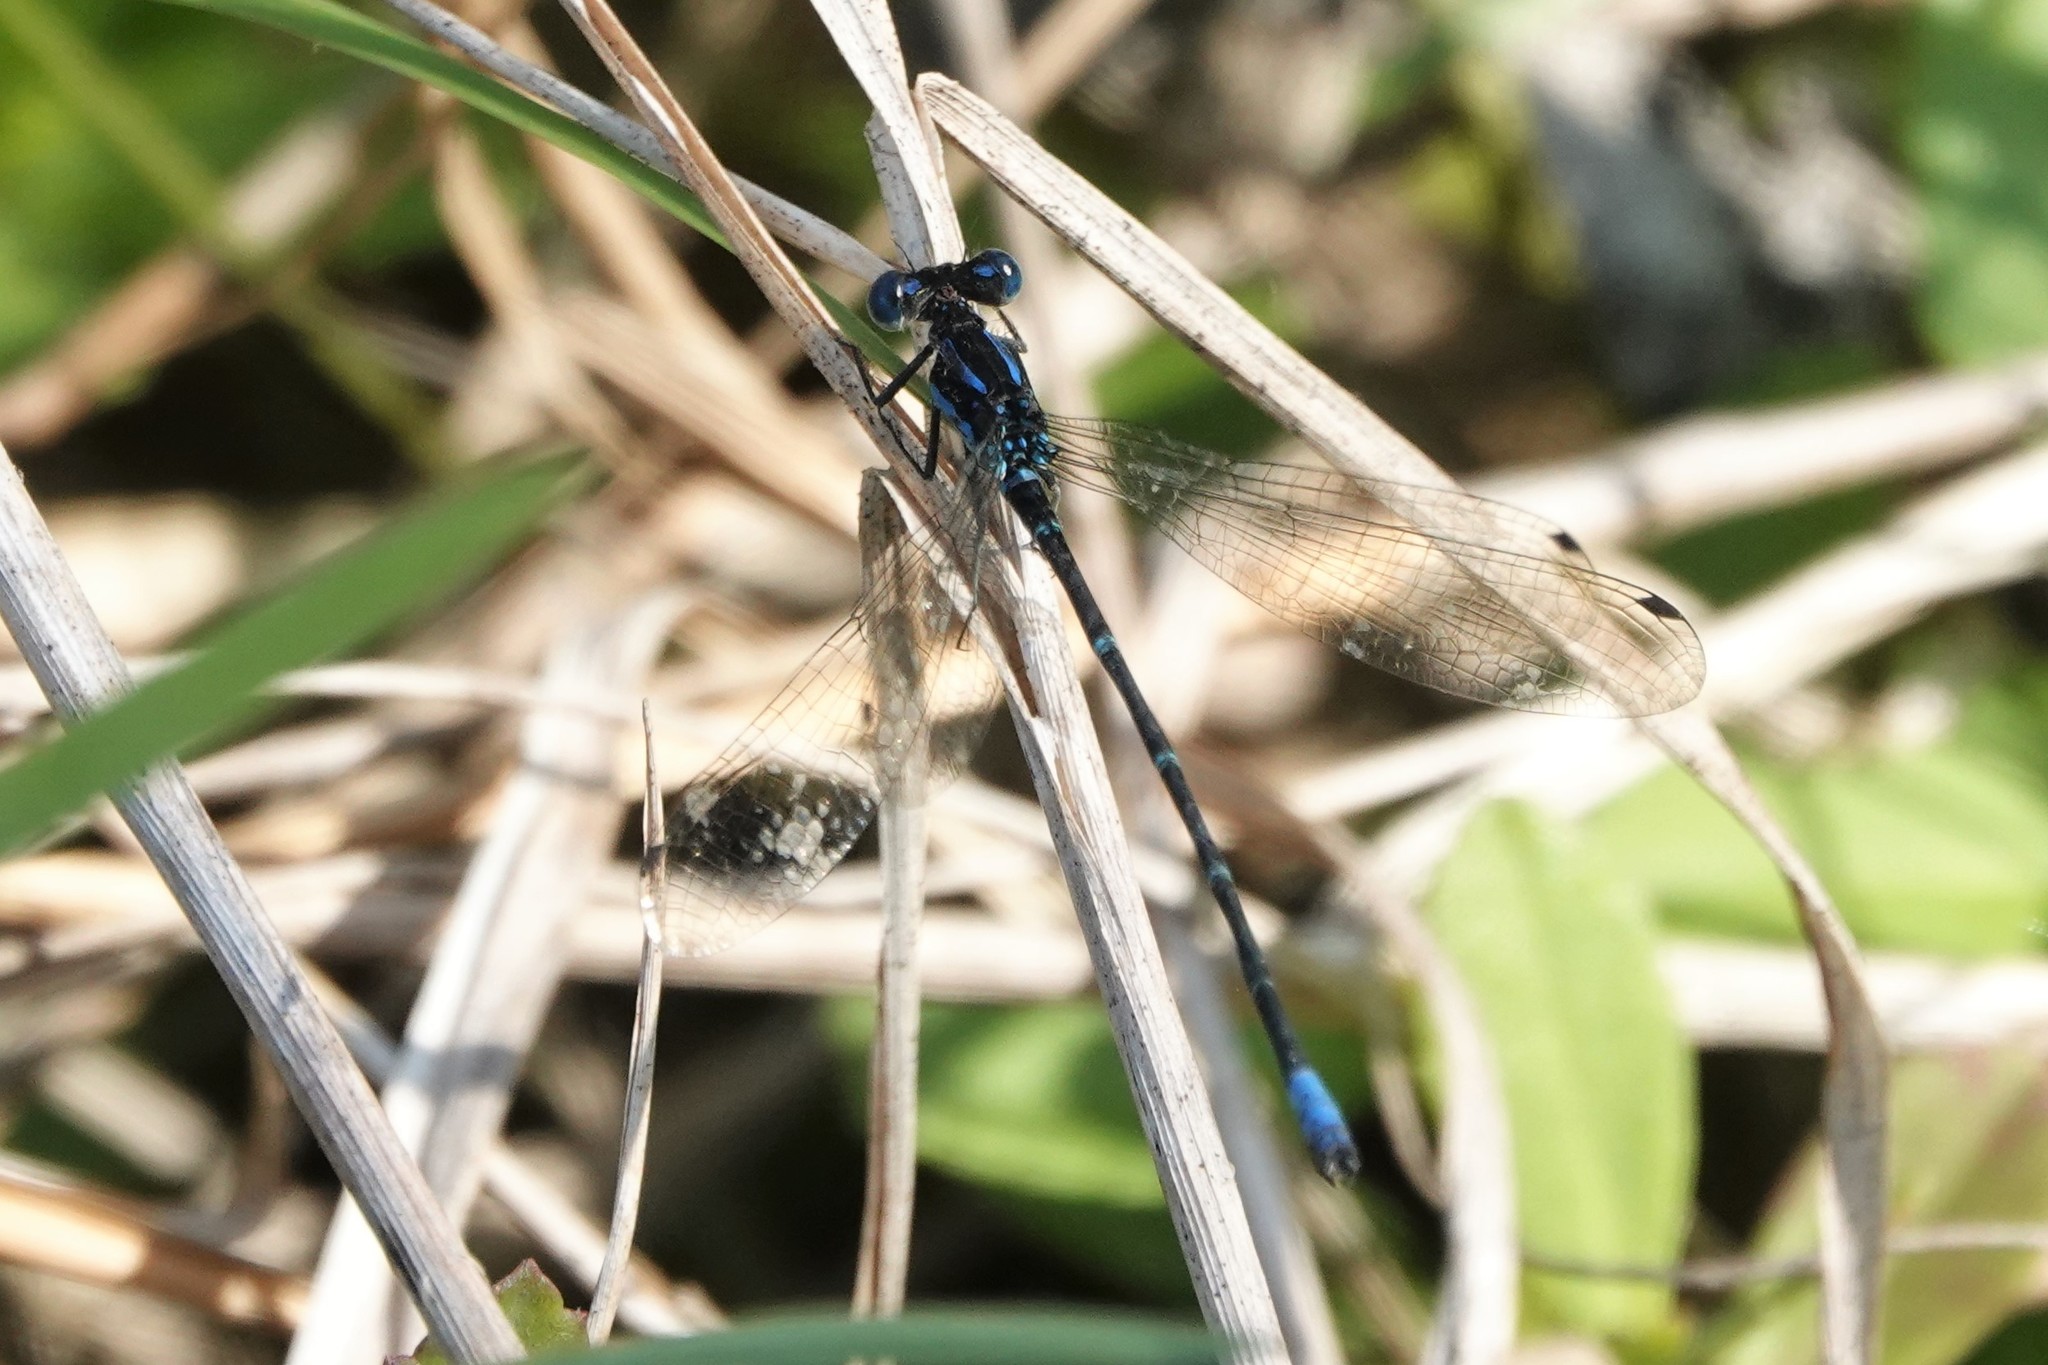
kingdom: Animalia
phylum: Arthropoda
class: Insecta
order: Odonata
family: Coenagrionidae
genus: Argia
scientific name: Argia sedula
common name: Blue-ringed dancer
